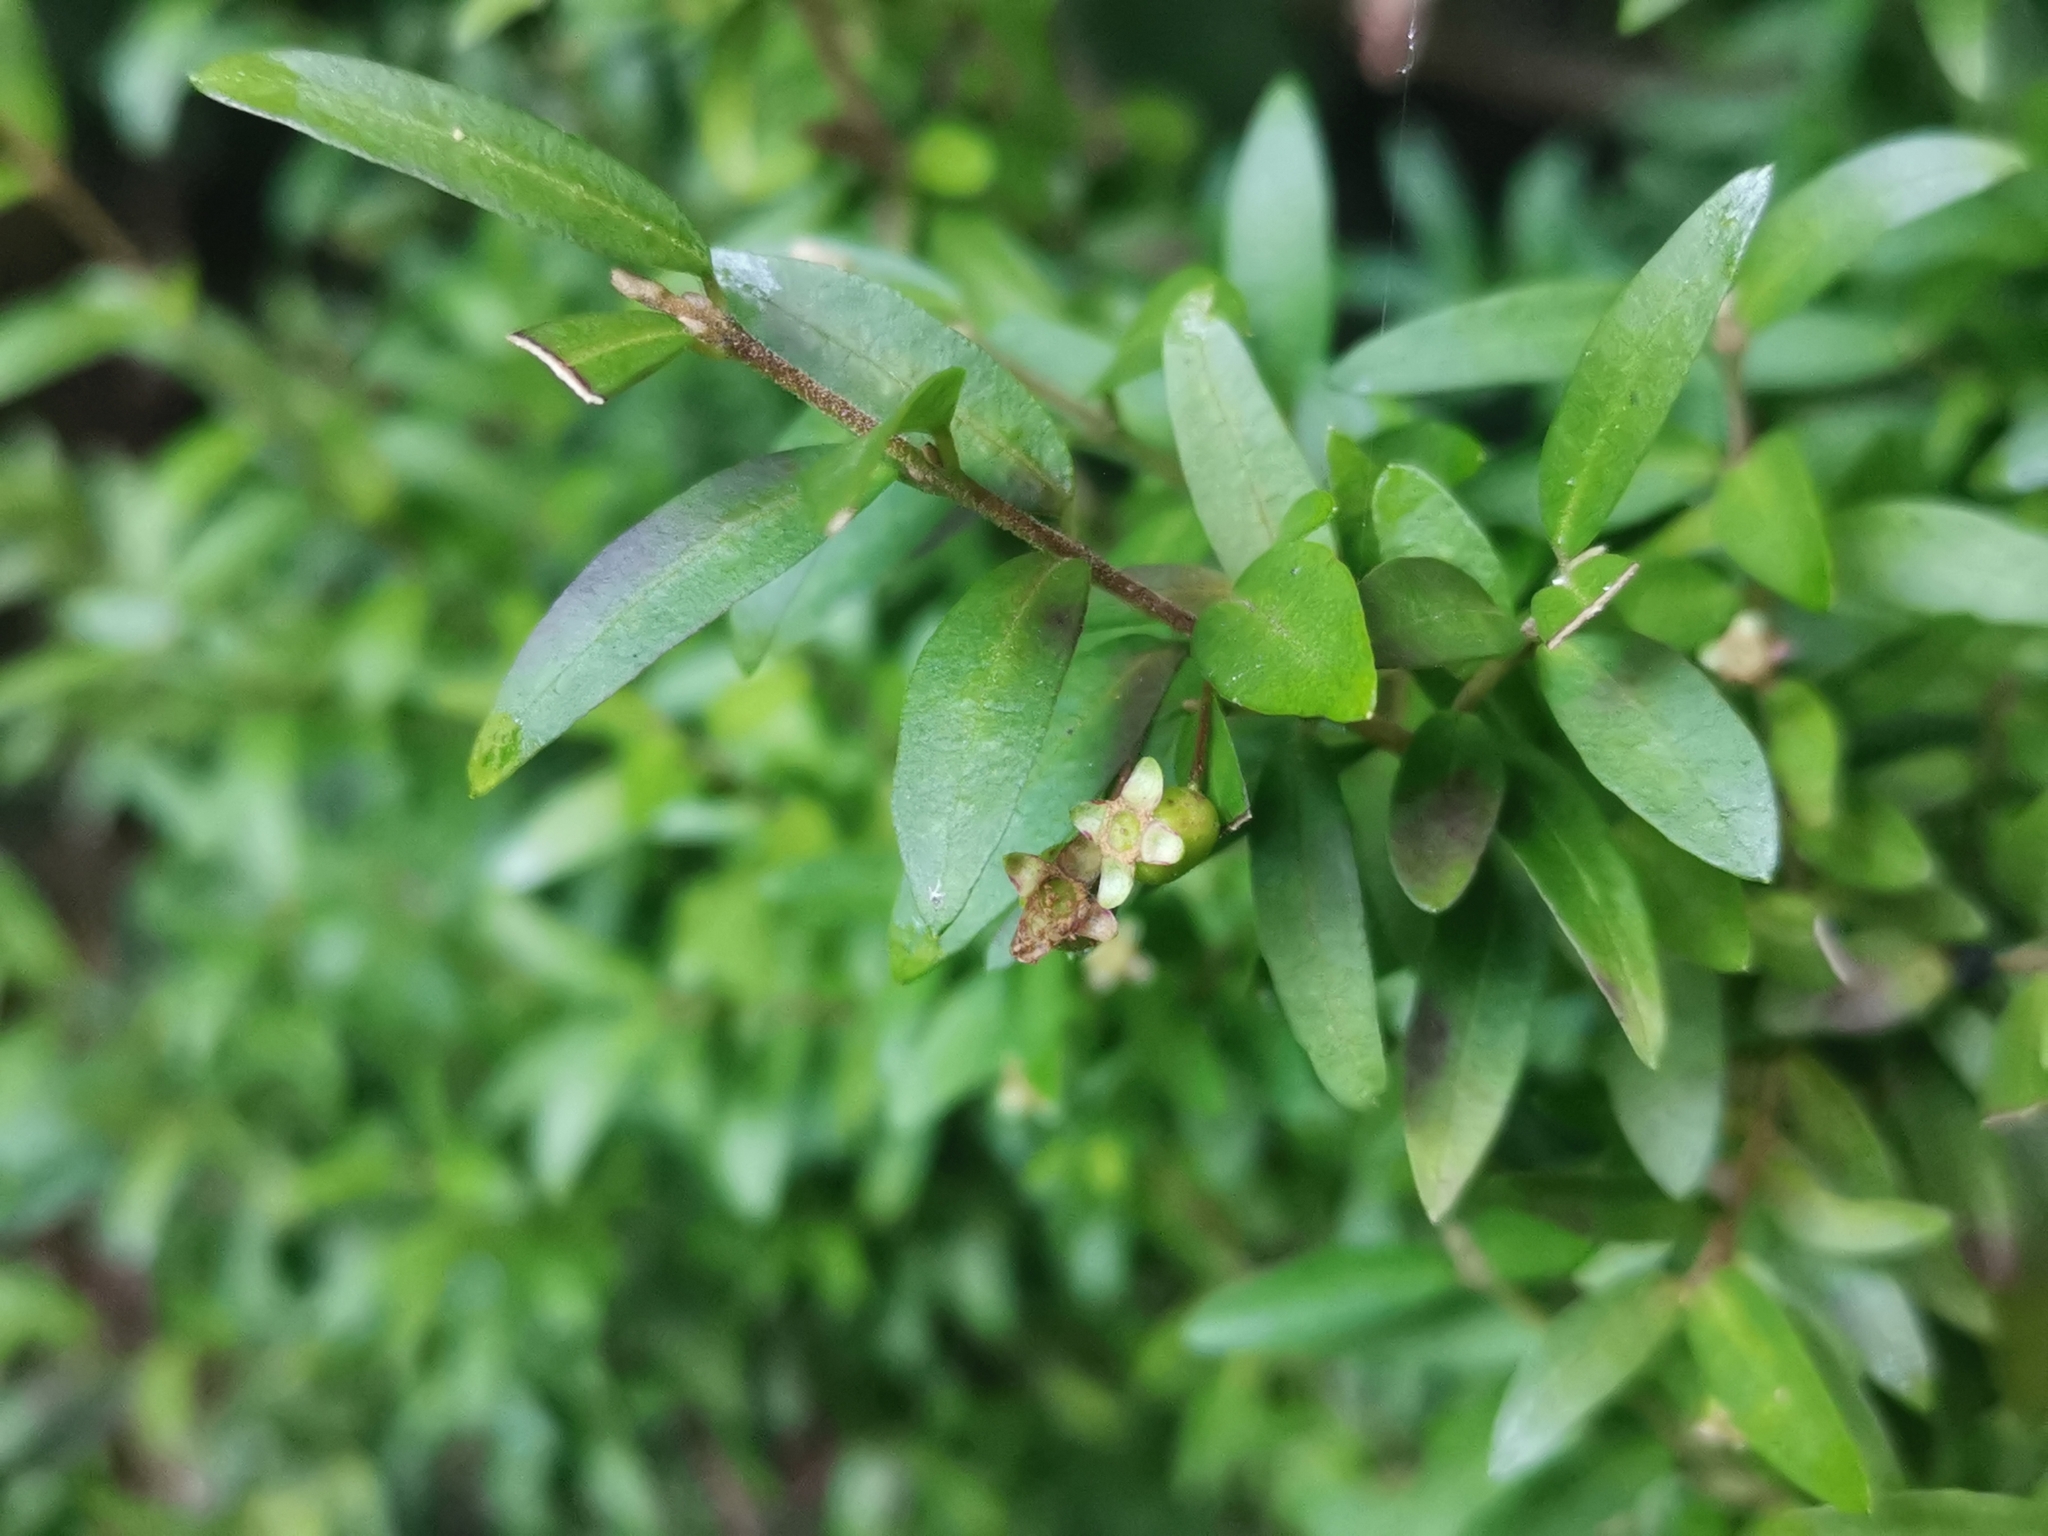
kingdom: Plantae
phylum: Tracheophyta
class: Magnoliopsida
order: Myrtales
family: Myrtaceae
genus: Myrceugenia
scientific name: Myrceugenia parvifolia
